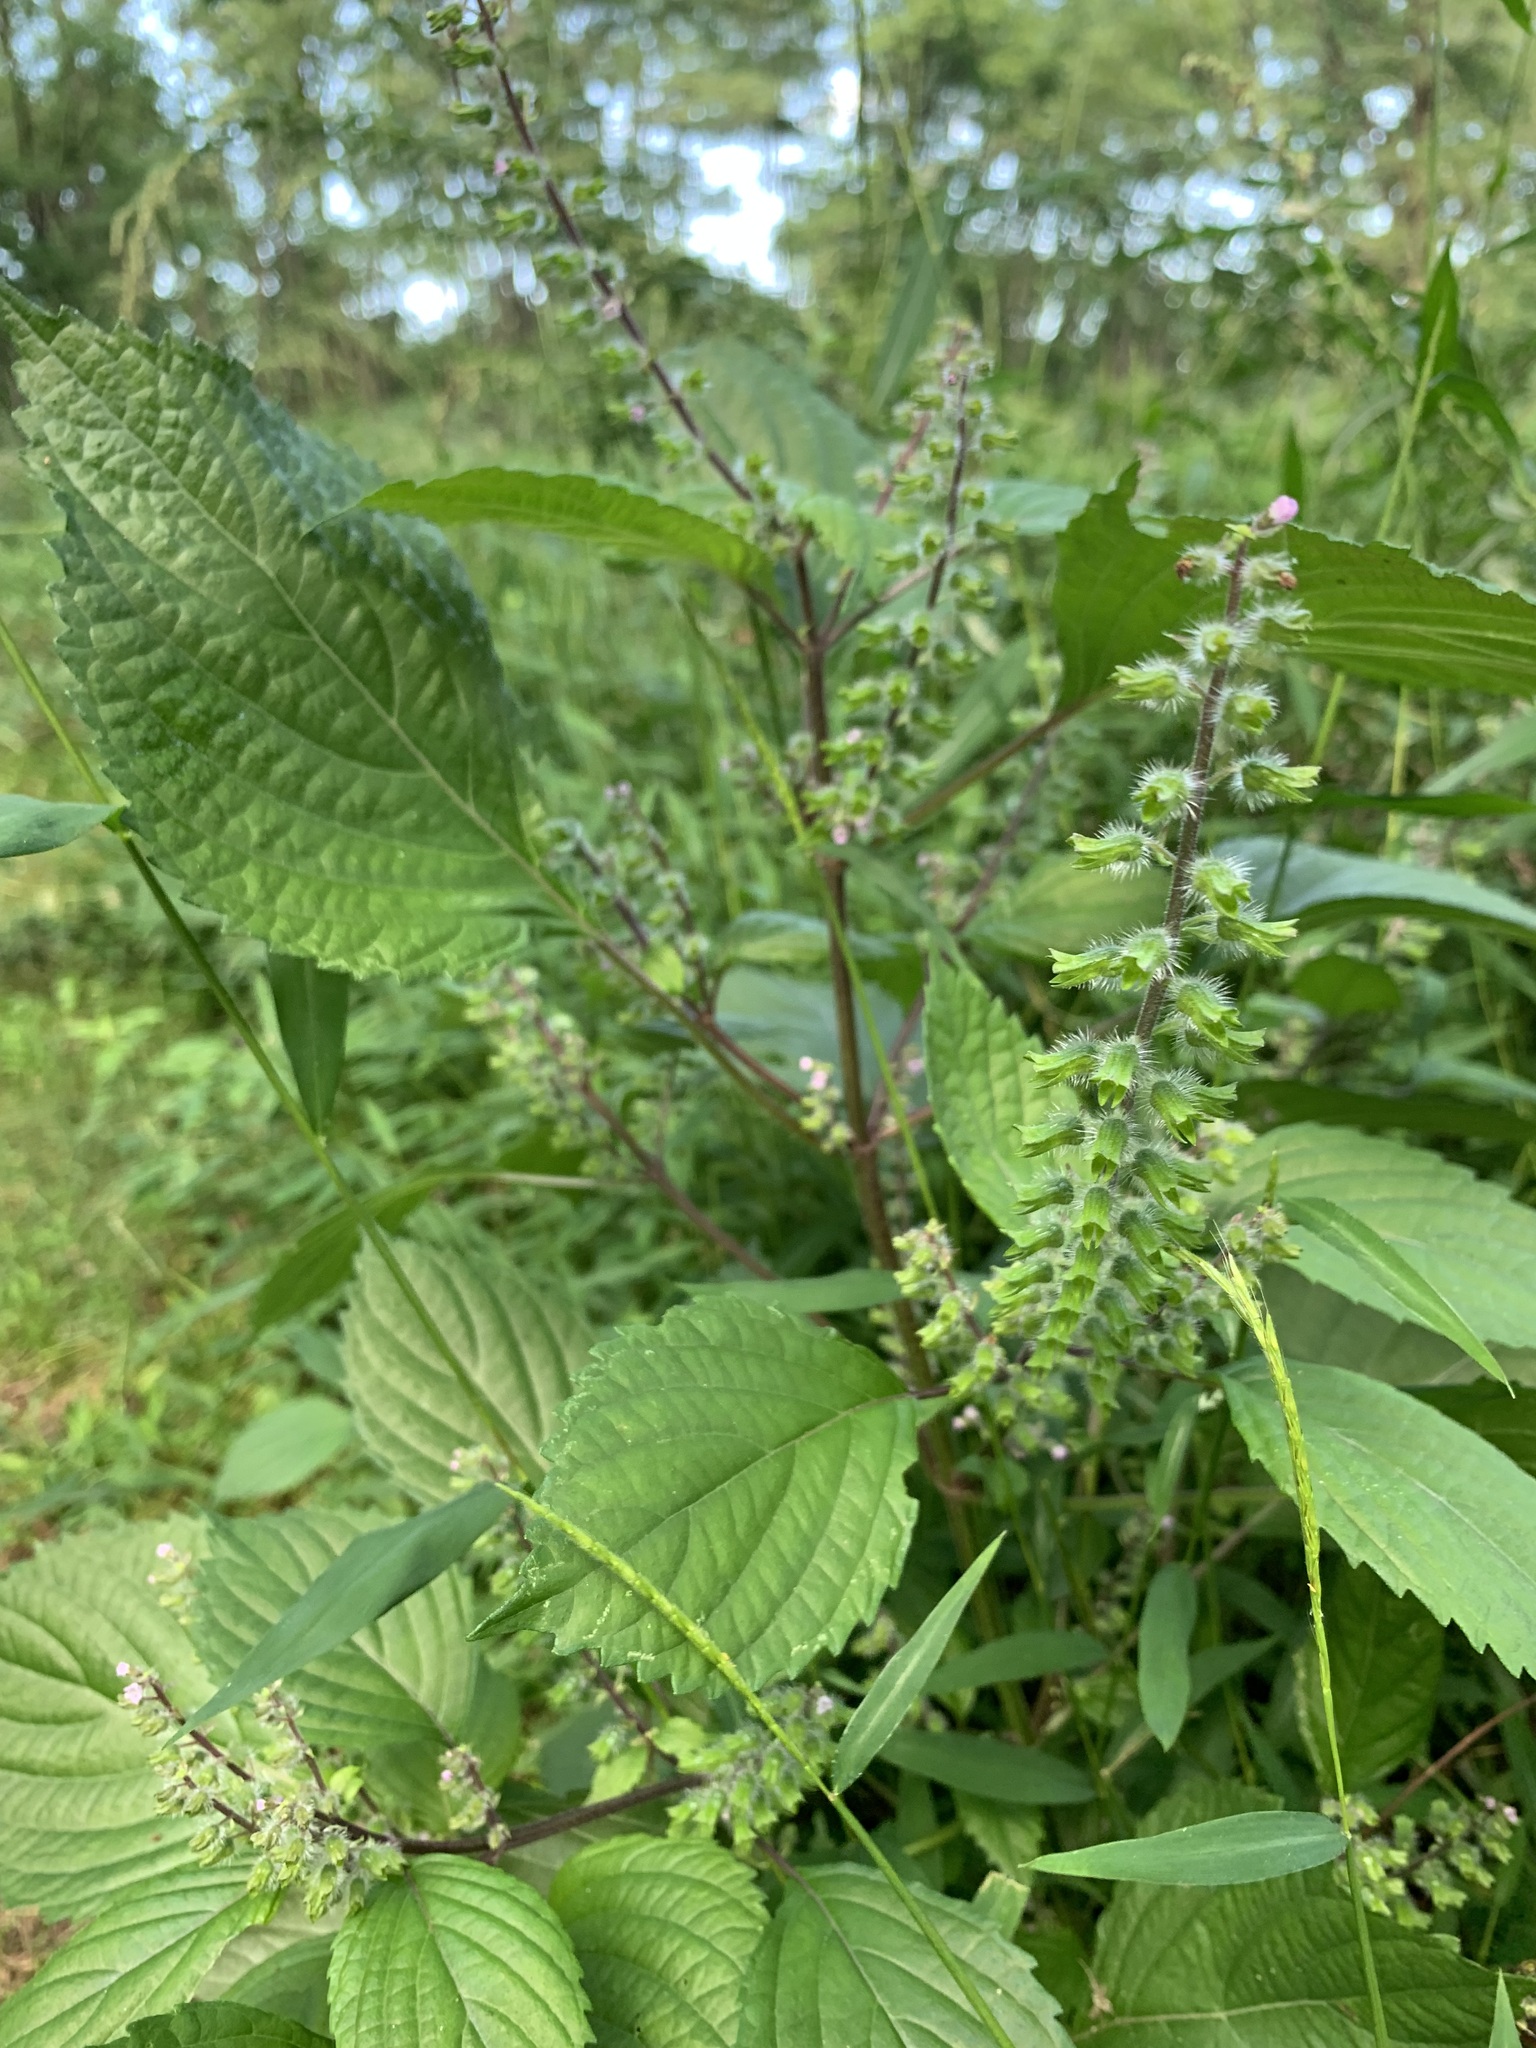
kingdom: Plantae
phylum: Tracheophyta
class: Magnoliopsida
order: Lamiales
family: Lamiaceae
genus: Perilla
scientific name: Perilla frutescens
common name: Perilla
